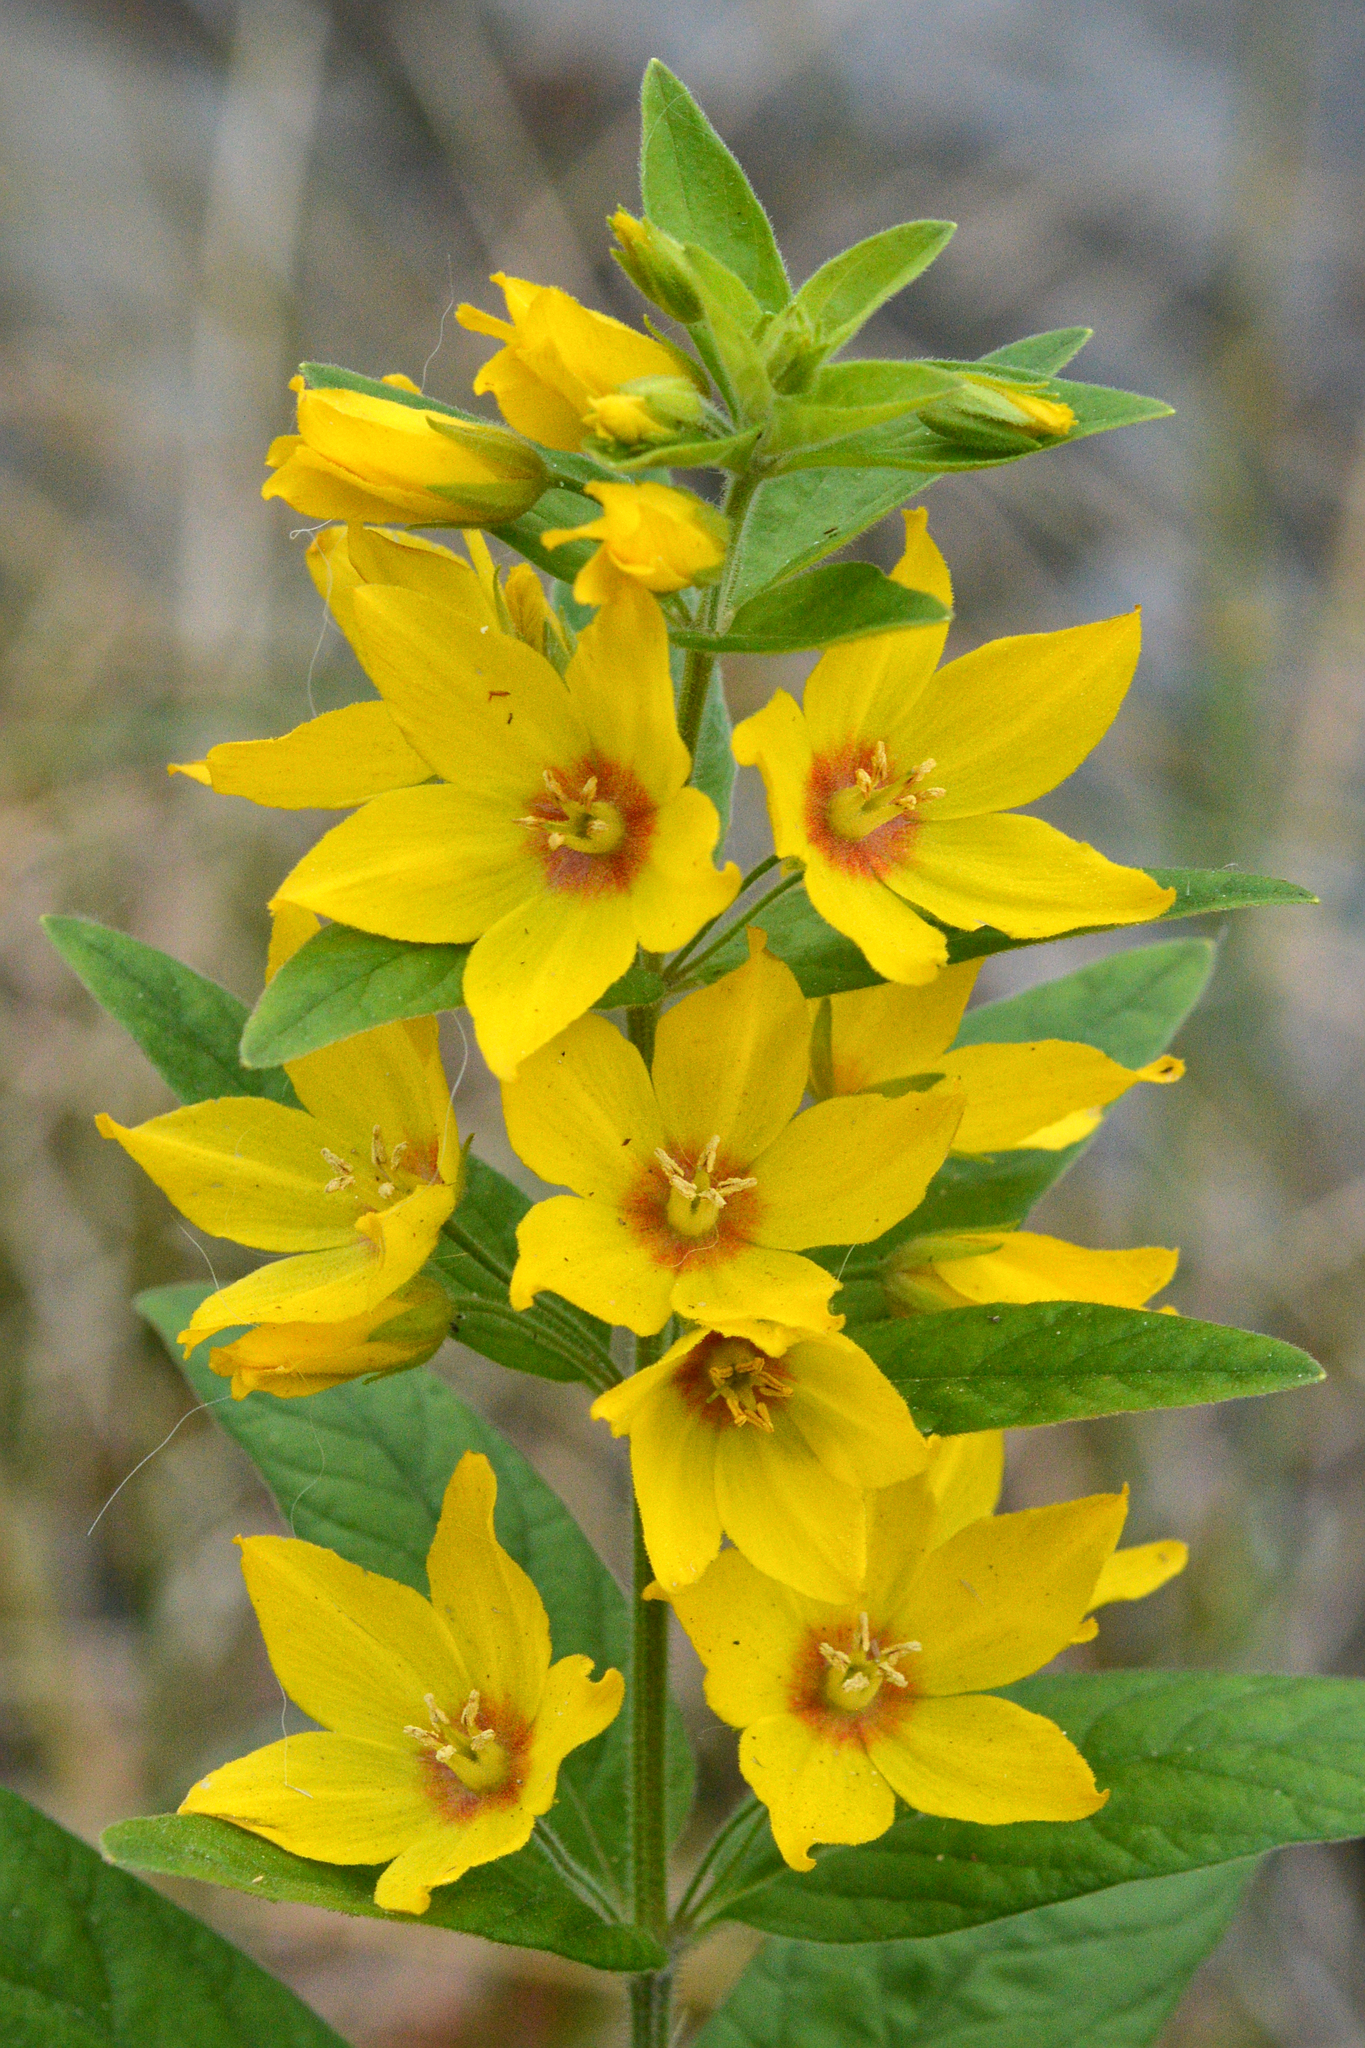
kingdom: Plantae
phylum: Tracheophyta
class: Magnoliopsida
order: Ericales
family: Primulaceae
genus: Lysimachia
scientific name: Lysimachia punctata
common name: Dotted loosestrife
